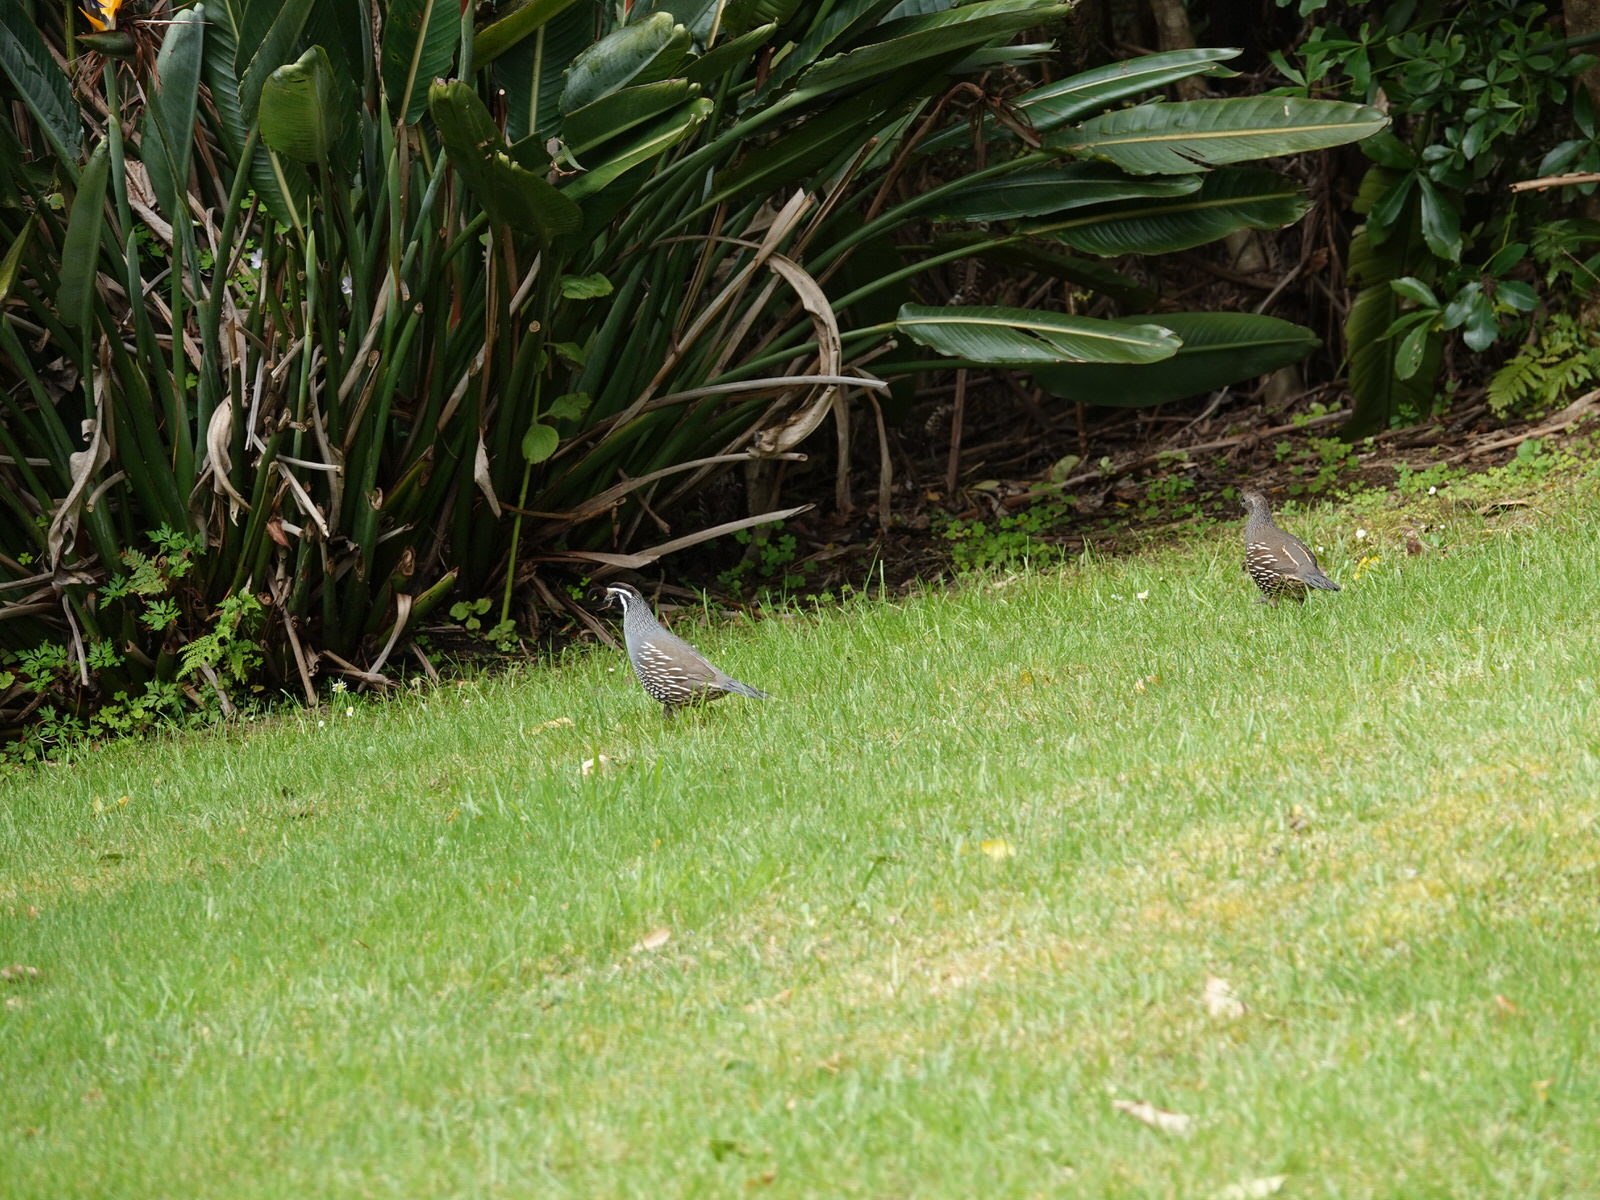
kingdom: Animalia
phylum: Chordata
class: Aves
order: Galliformes
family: Odontophoridae
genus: Callipepla
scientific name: Callipepla californica
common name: California quail
